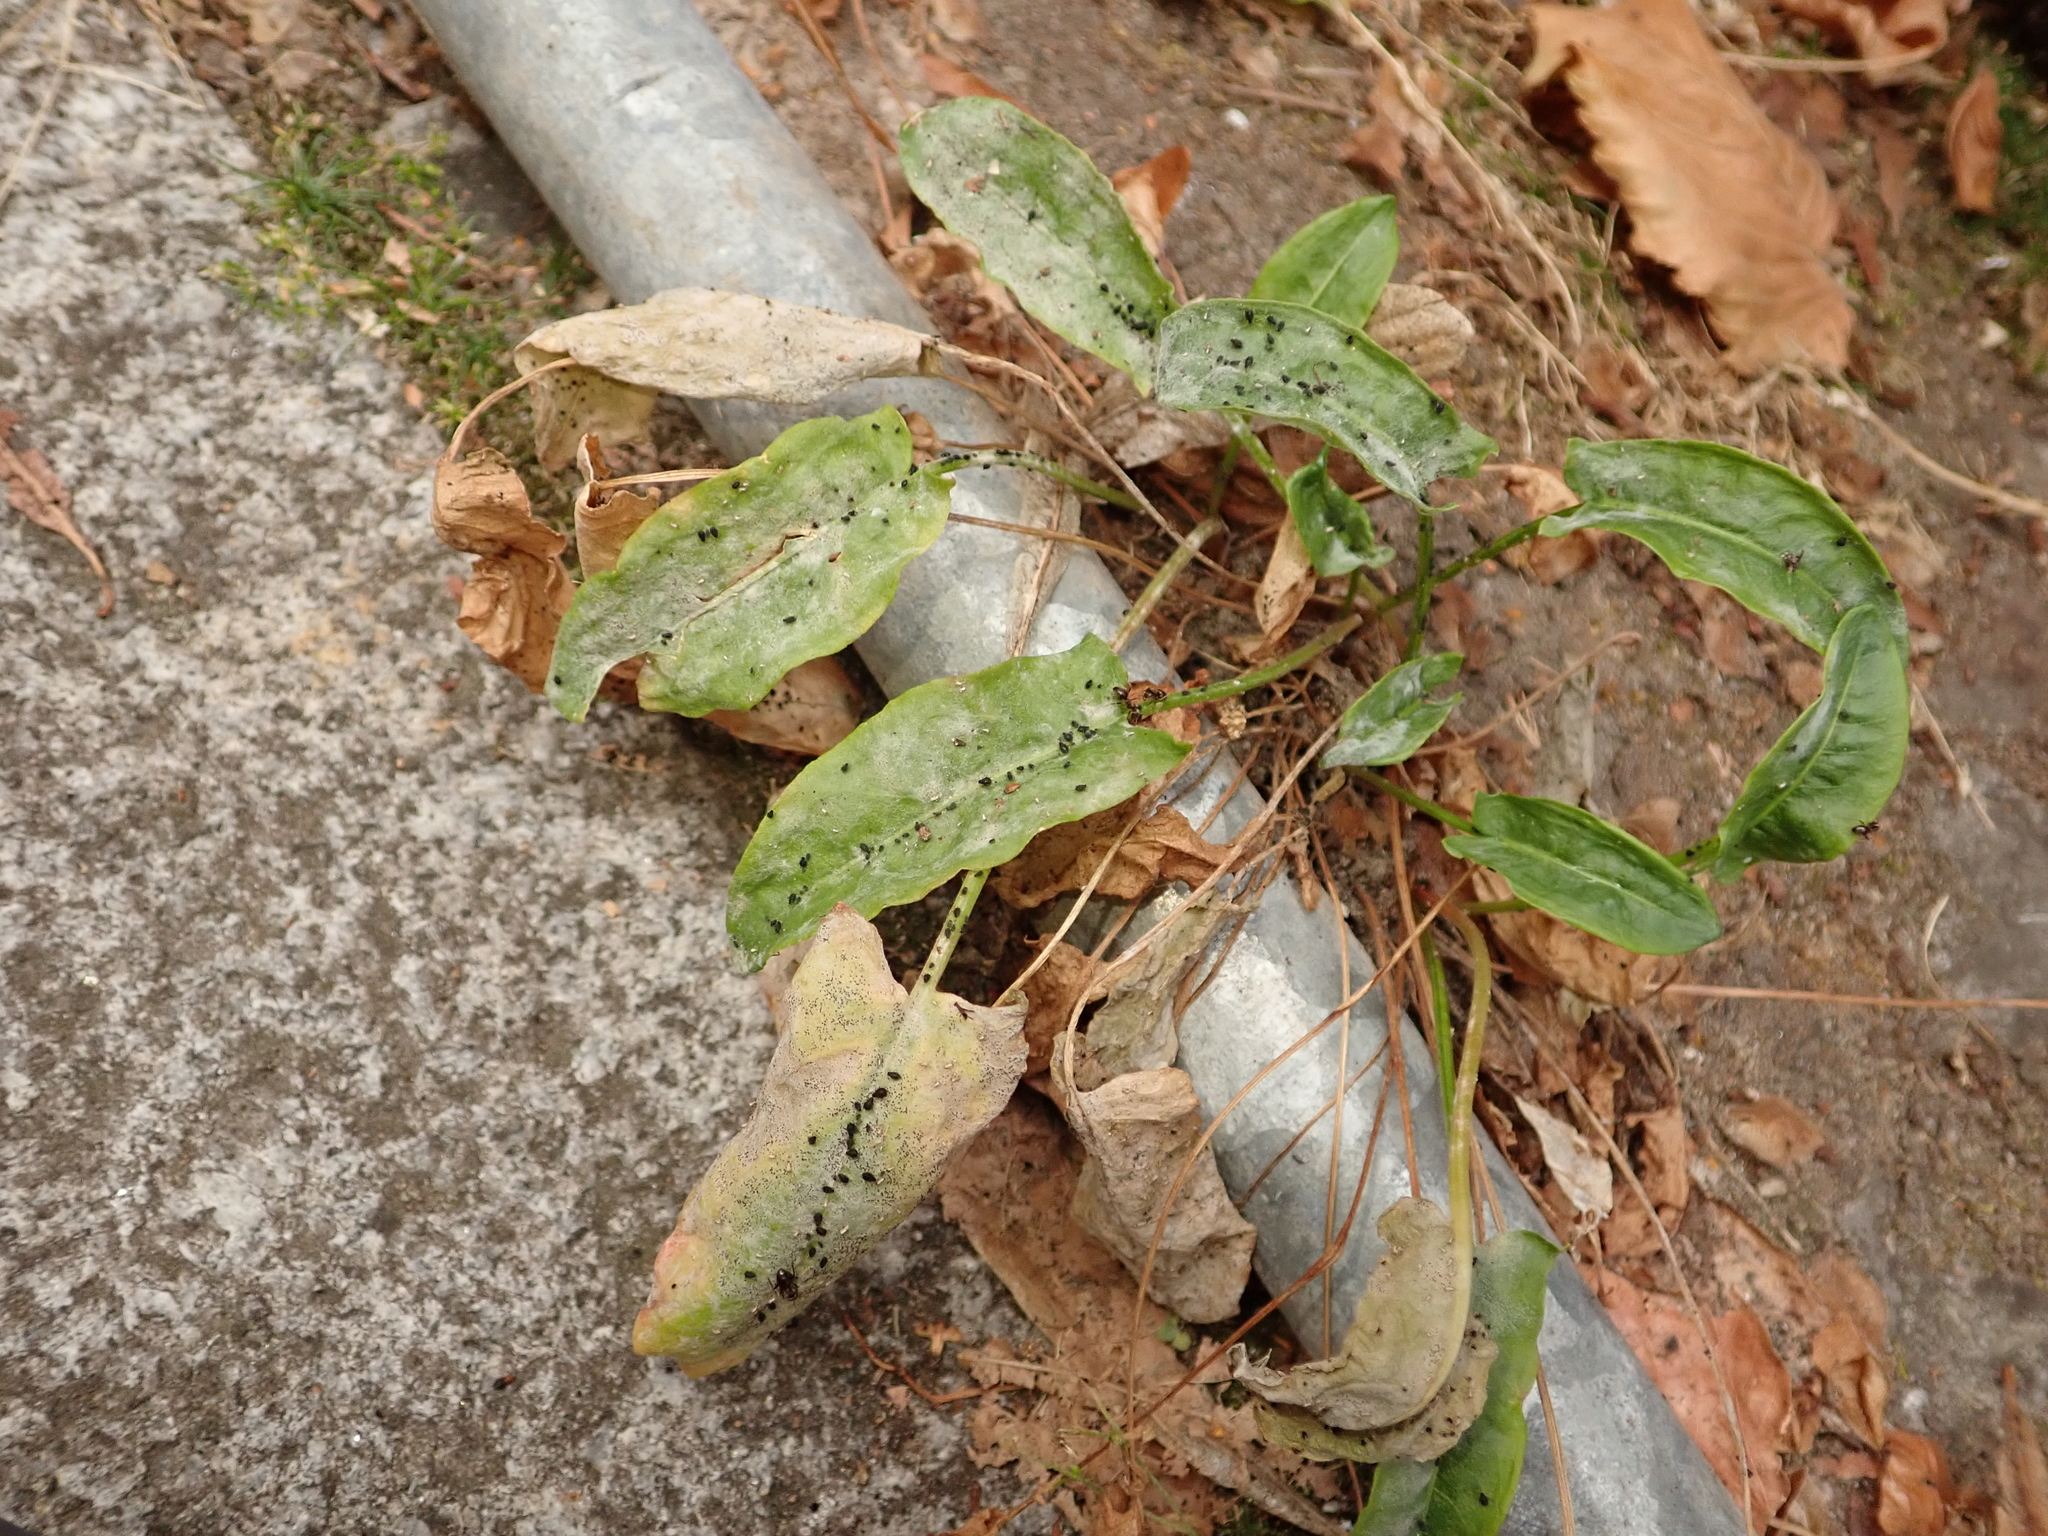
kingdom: Plantae
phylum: Tracheophyta
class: Magnoliopsida
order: Caryophyllales
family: Polygonaceae
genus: Rumex
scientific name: Rumex acetosa
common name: Garden sorrel
